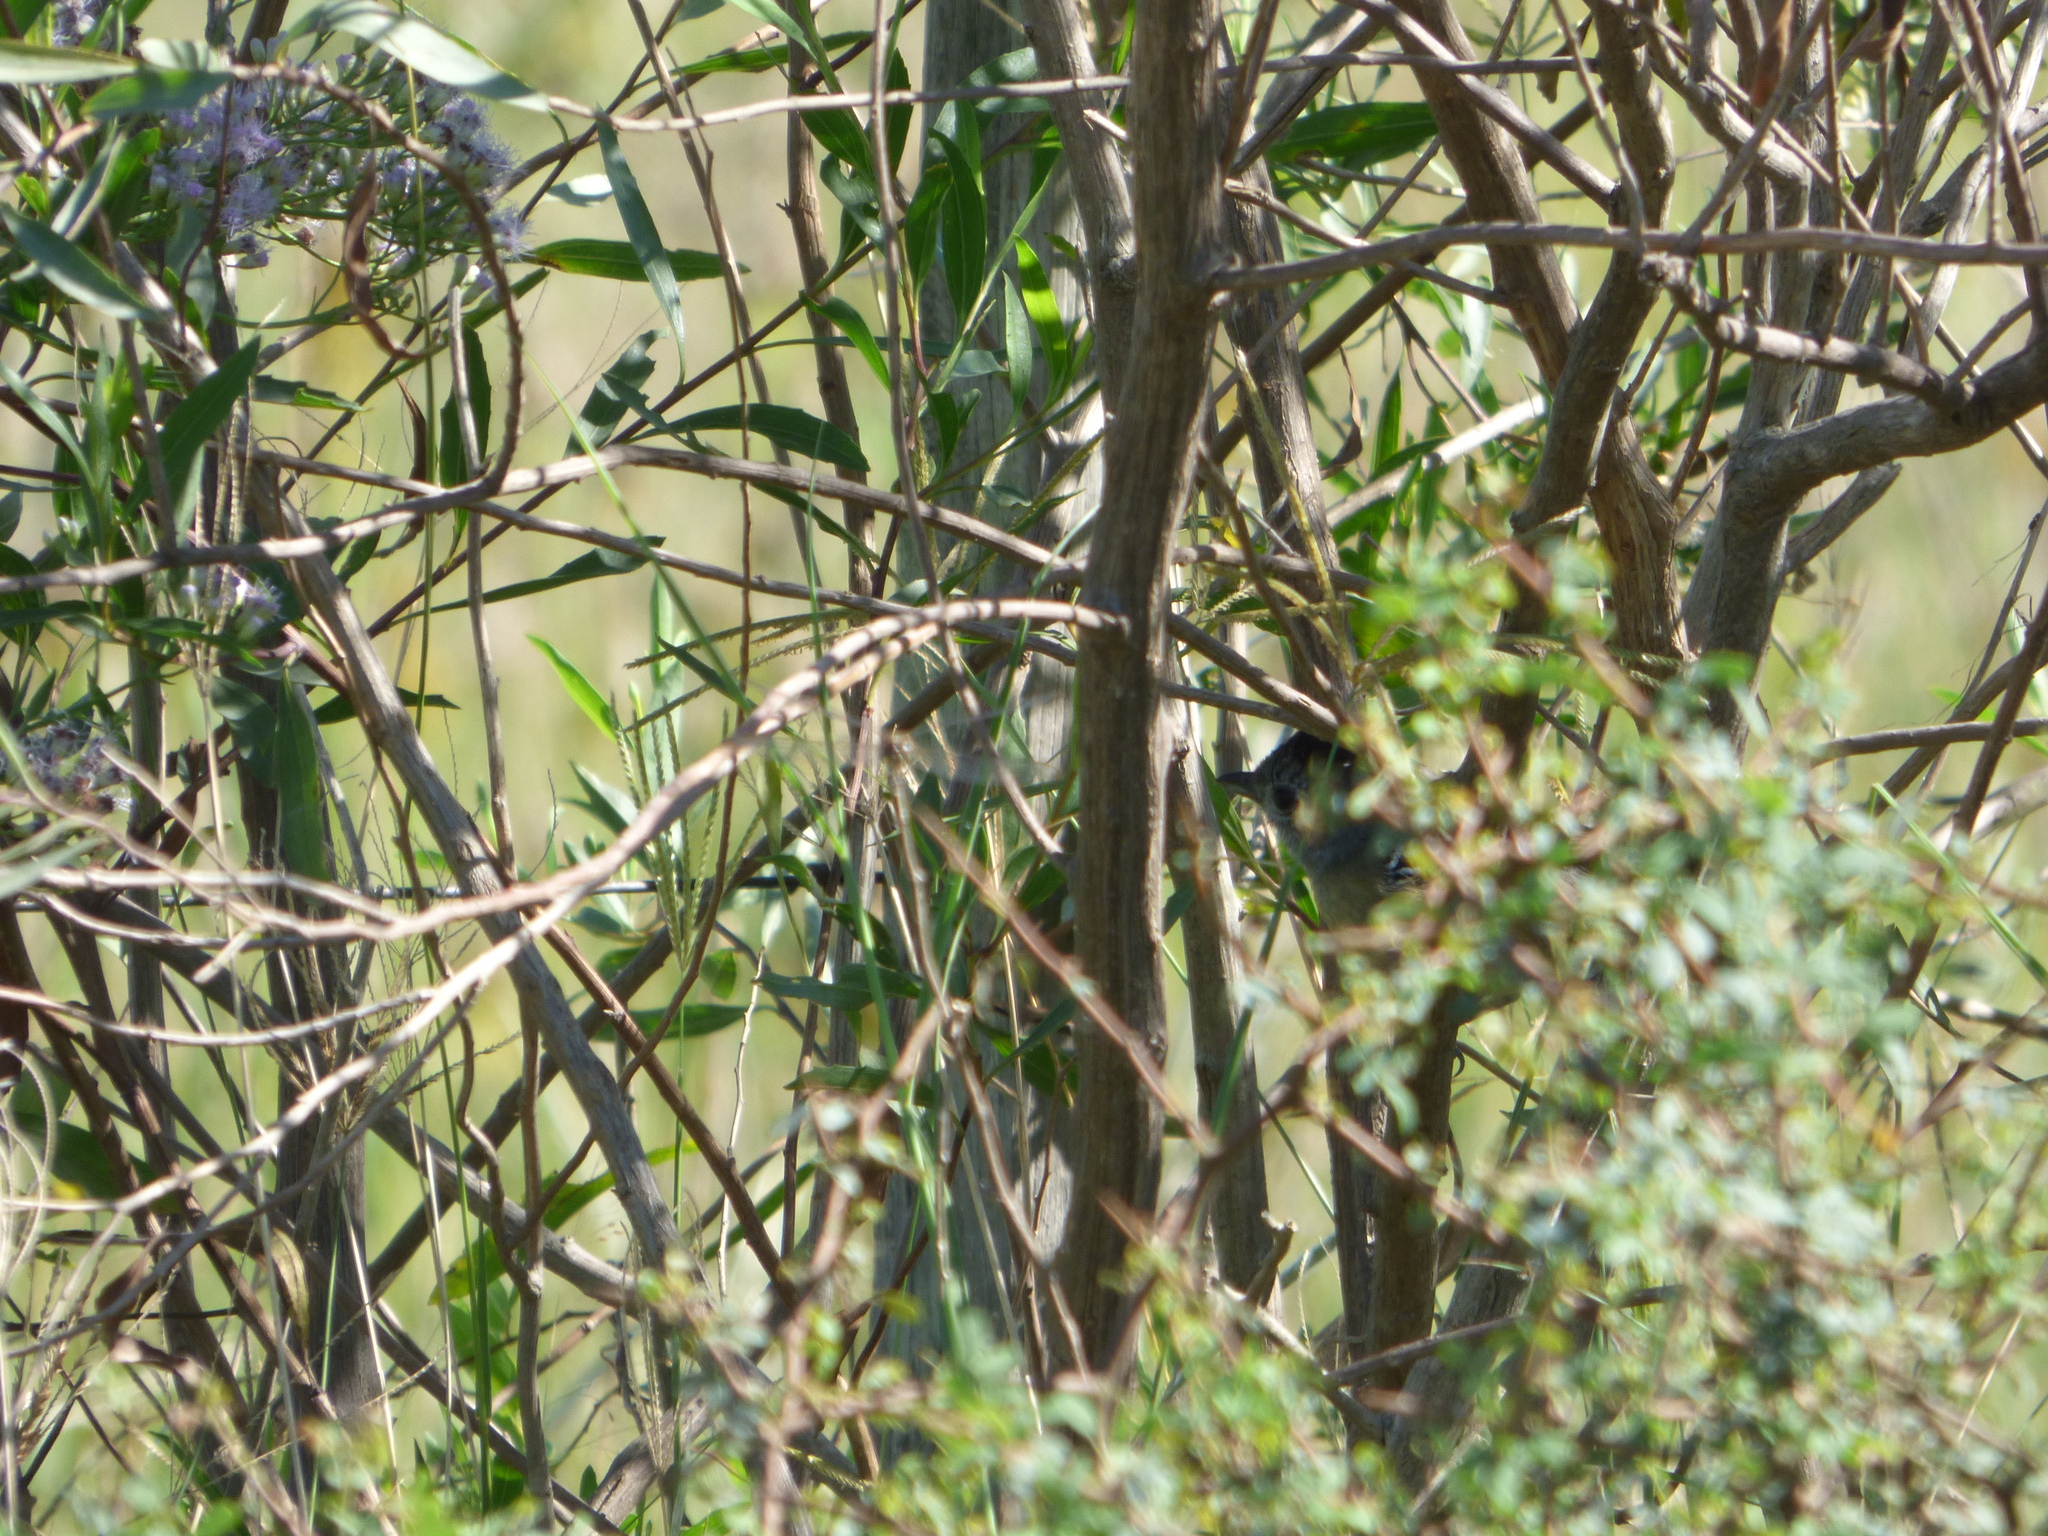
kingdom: Animalia
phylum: Chordata
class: Aves
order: Passeriformes
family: Thamnophilidae
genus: Thamnophilus
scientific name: Thamnophilus caerulescens
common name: Variable antshrike
